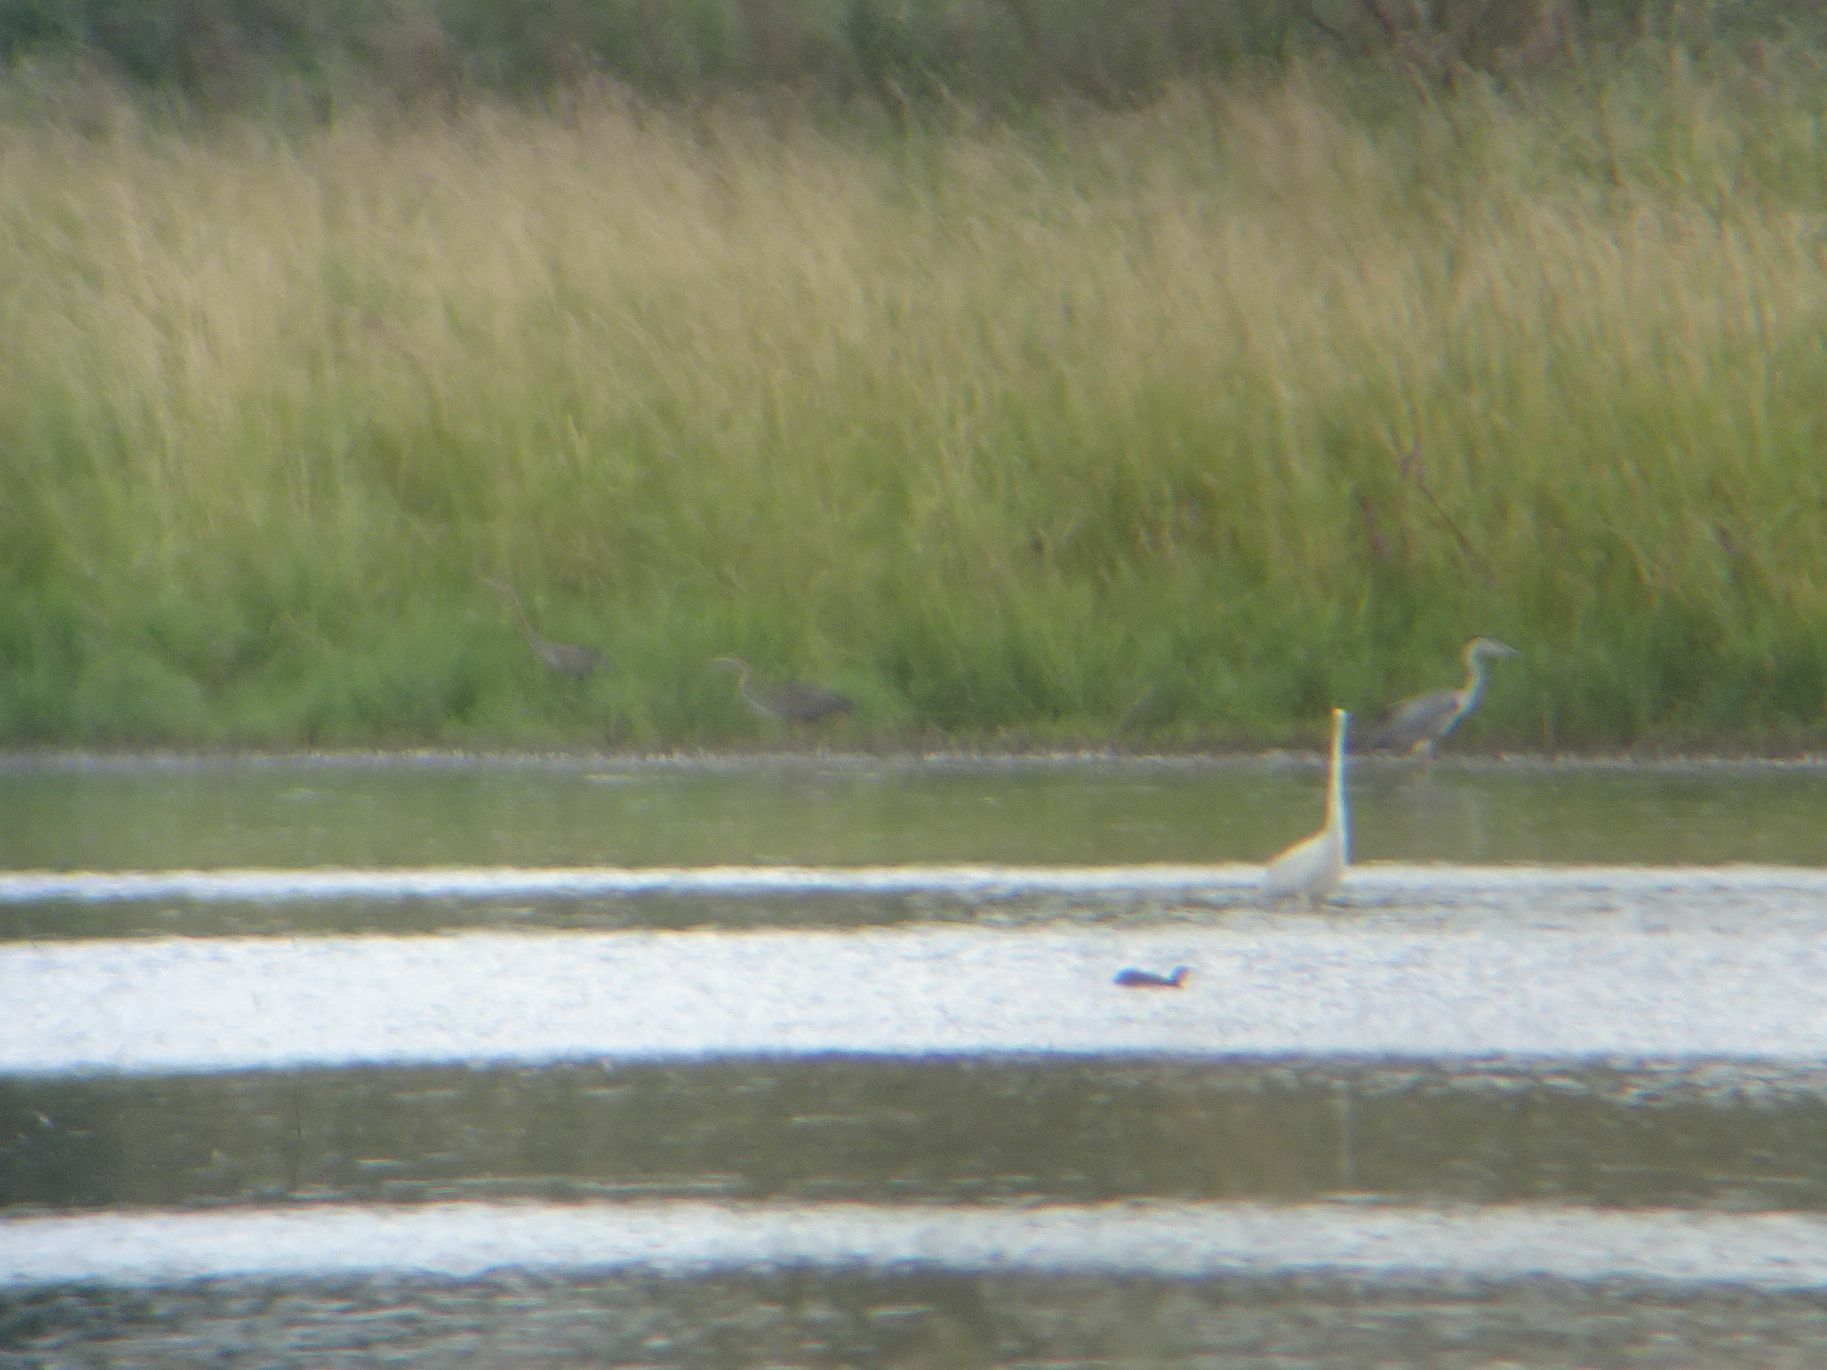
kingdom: Animalia
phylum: Chordata
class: Aves
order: Pelecaniformes
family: Ardeidae
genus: Ardea
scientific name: Ardea purpurea
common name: Purple heron
